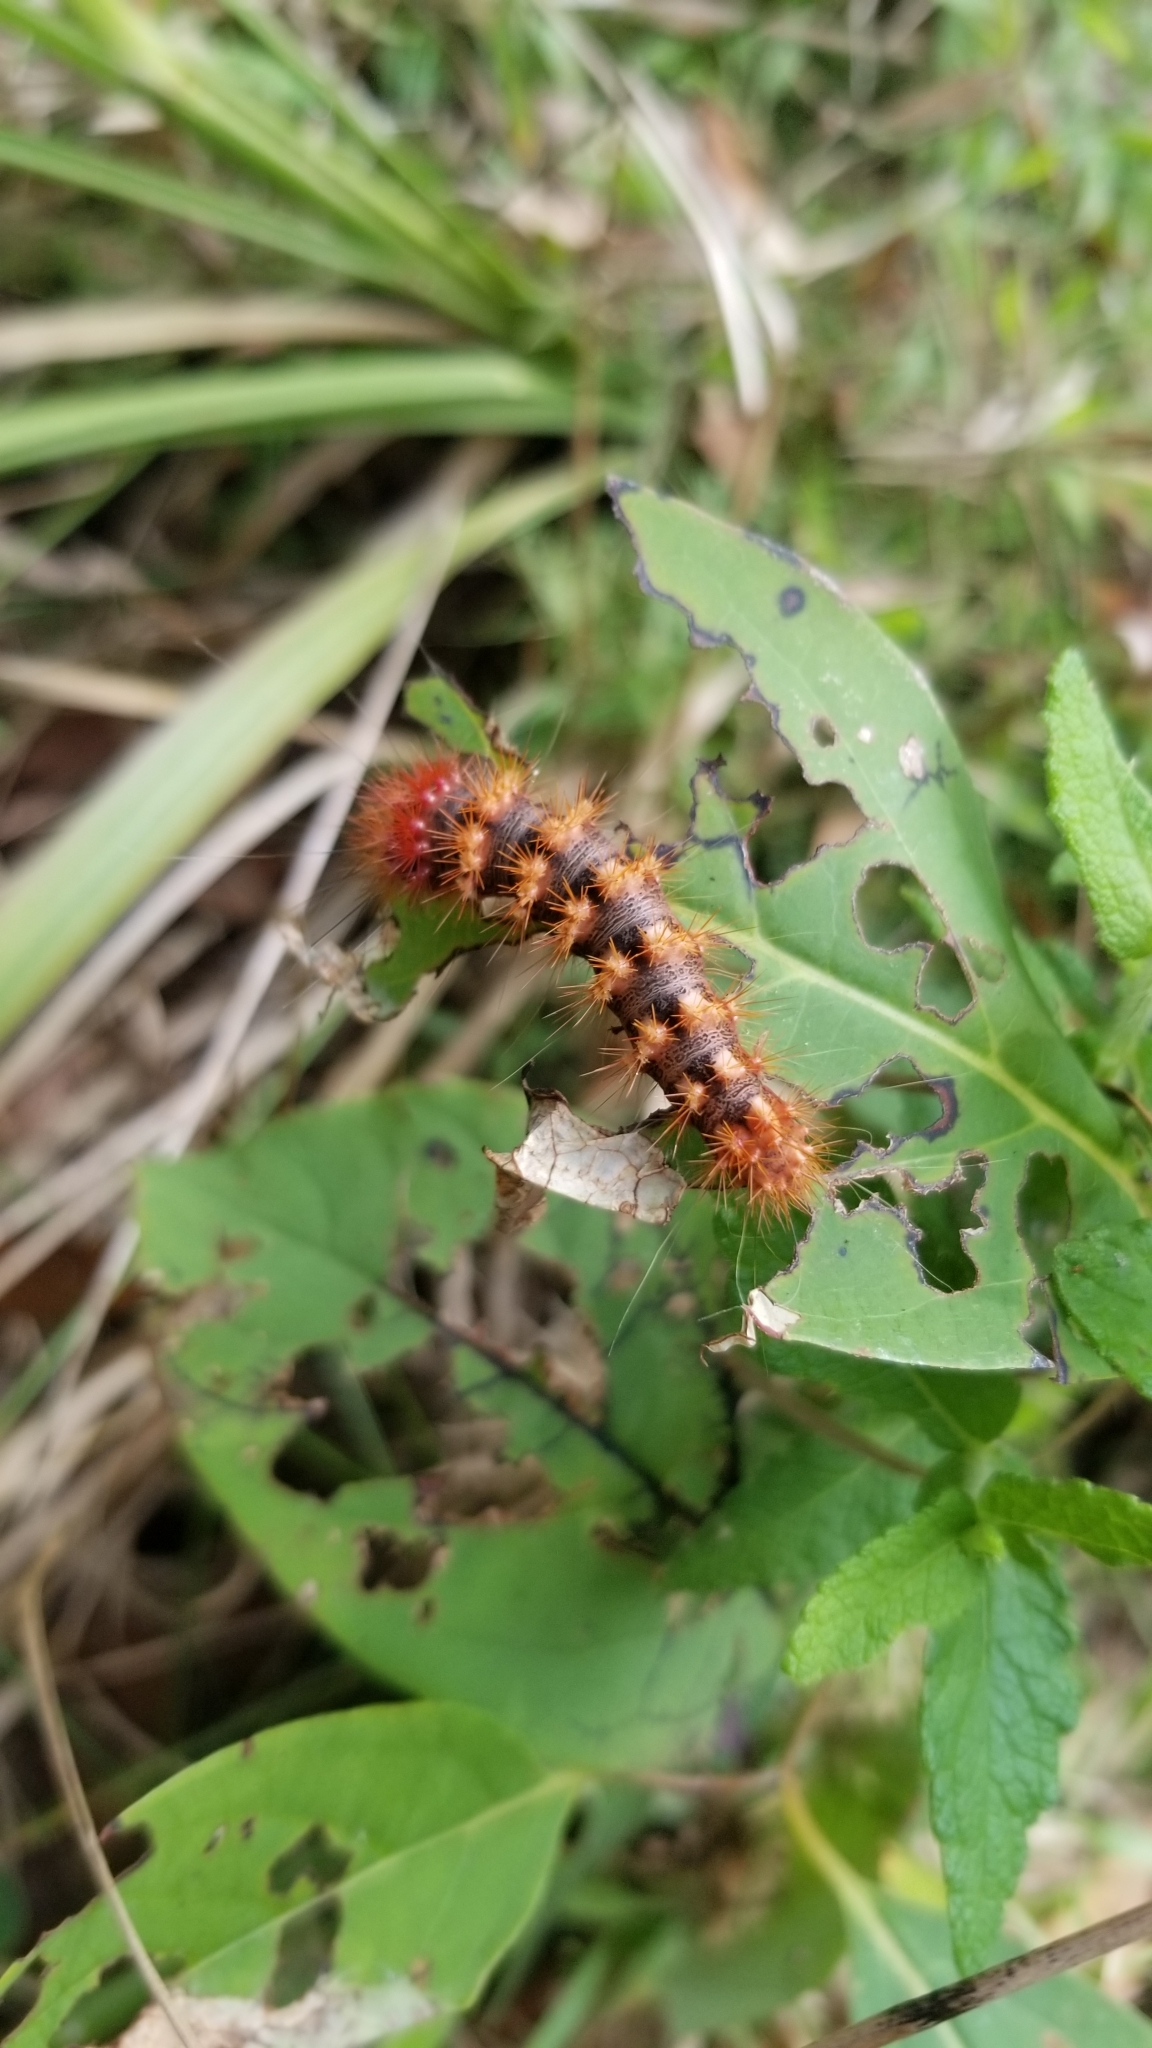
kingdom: Animalia
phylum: Arthropoda
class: Insecta
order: Lepidoptera
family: Noctuidae
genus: Acronicta
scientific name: Acronicta longa
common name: Long-winged dagger
